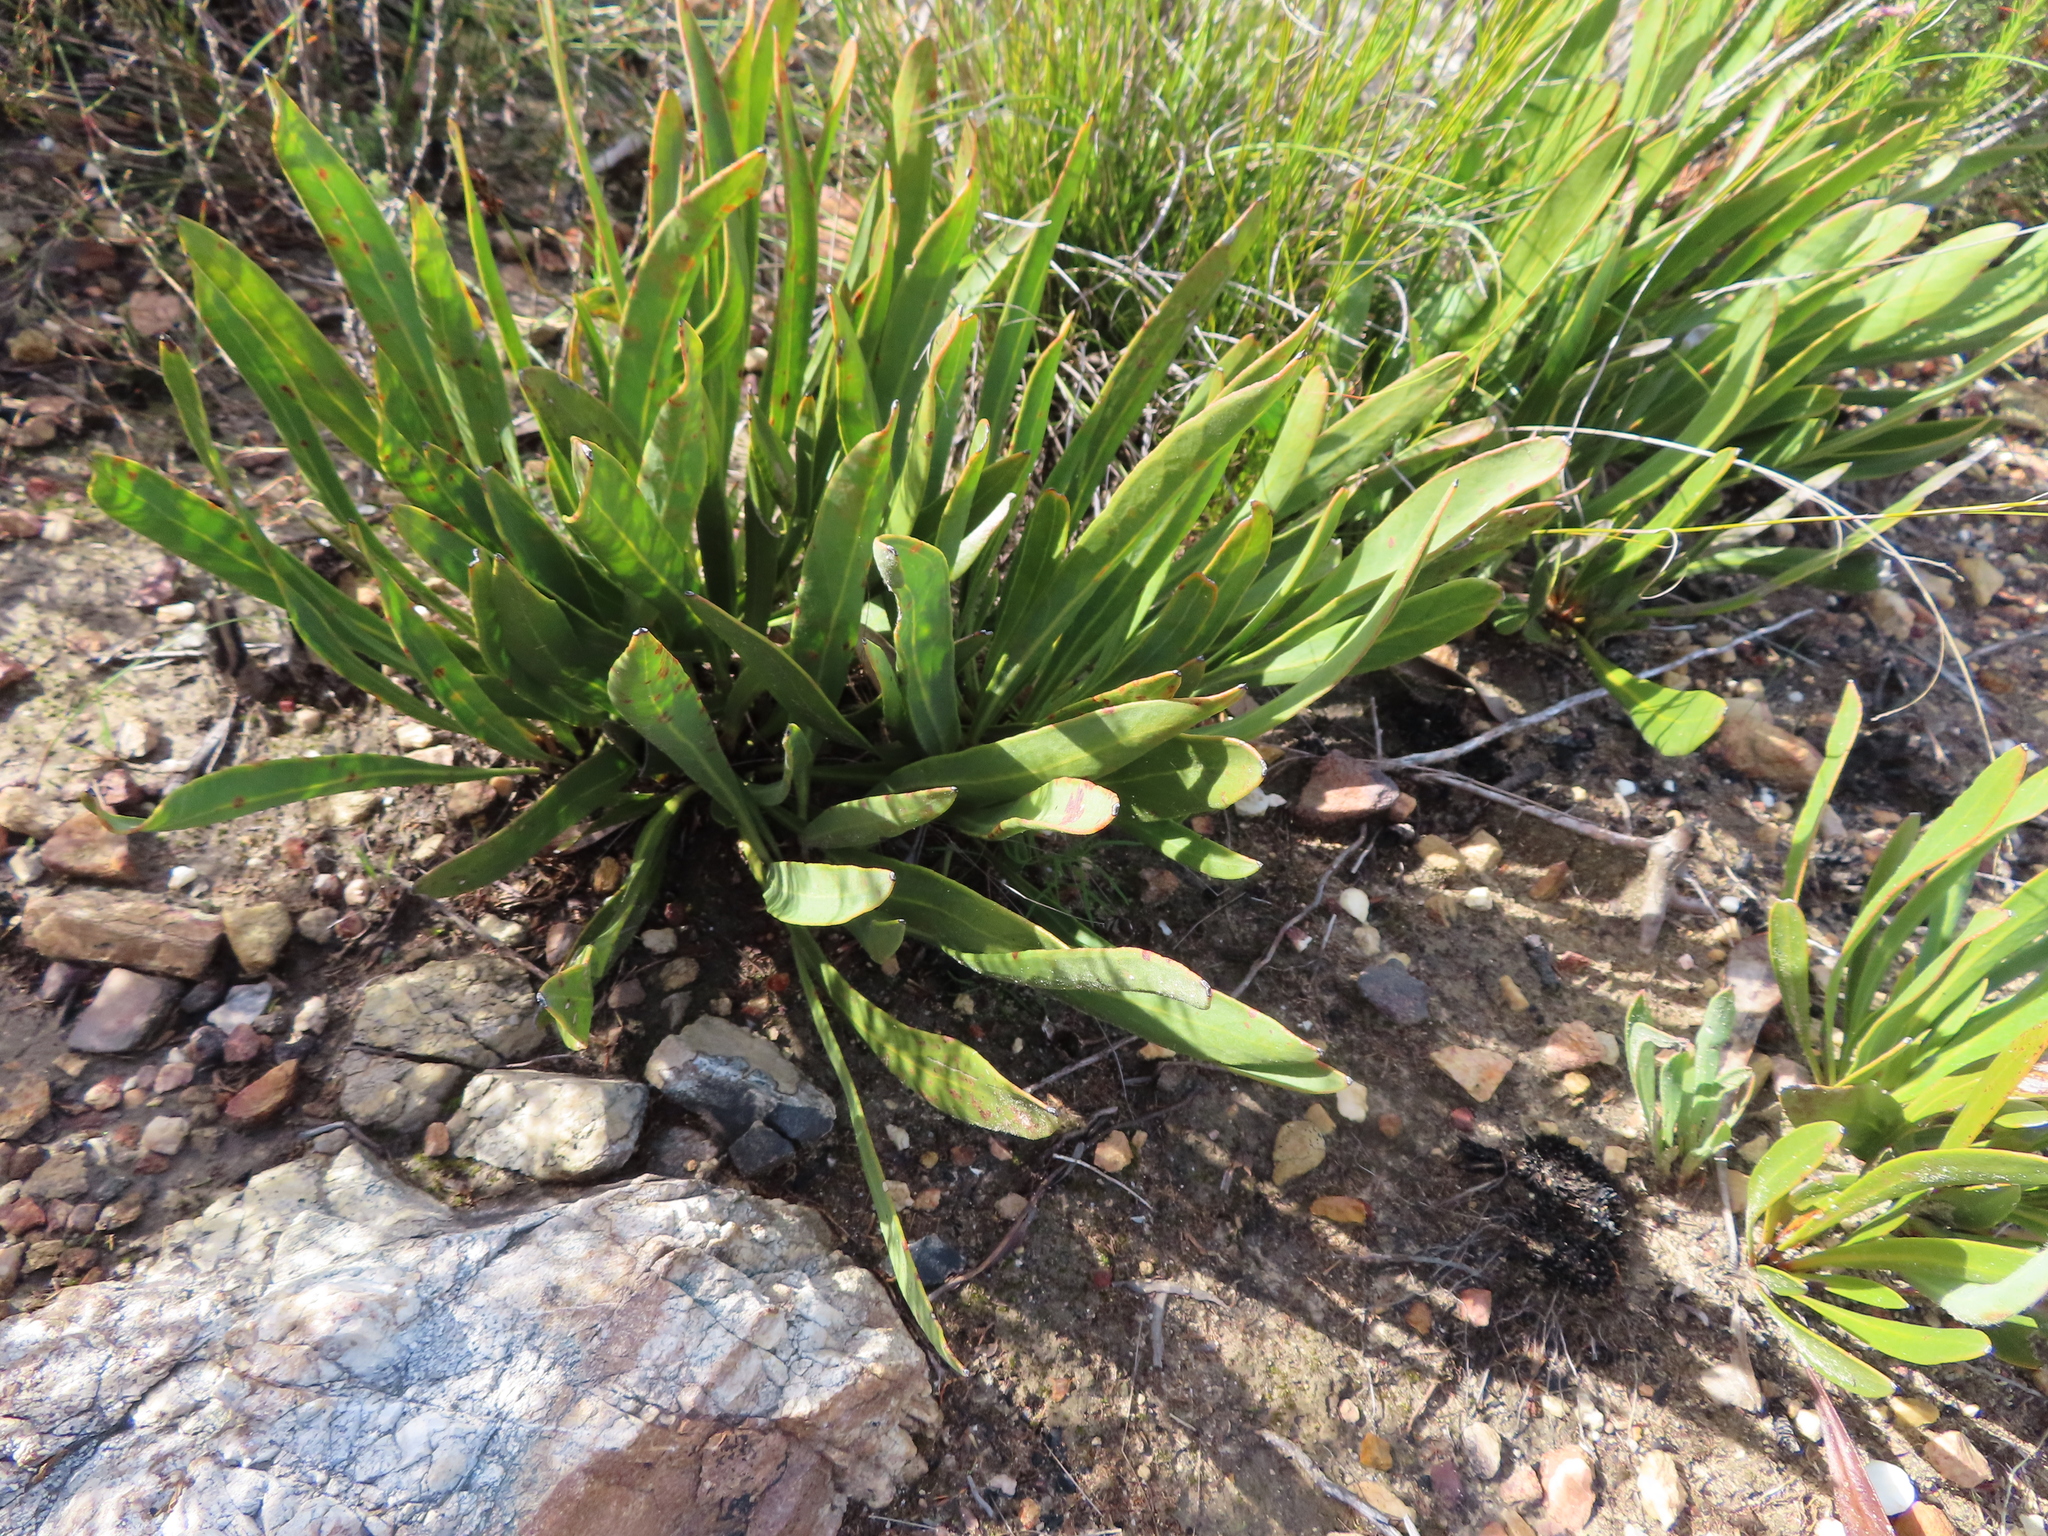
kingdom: Plantae
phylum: Tracheophyta
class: Magnoliopsida
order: Proteales
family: Proteaceae
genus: Protea
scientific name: Protea scabra
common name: Sandpaper-leaf sugarbush
